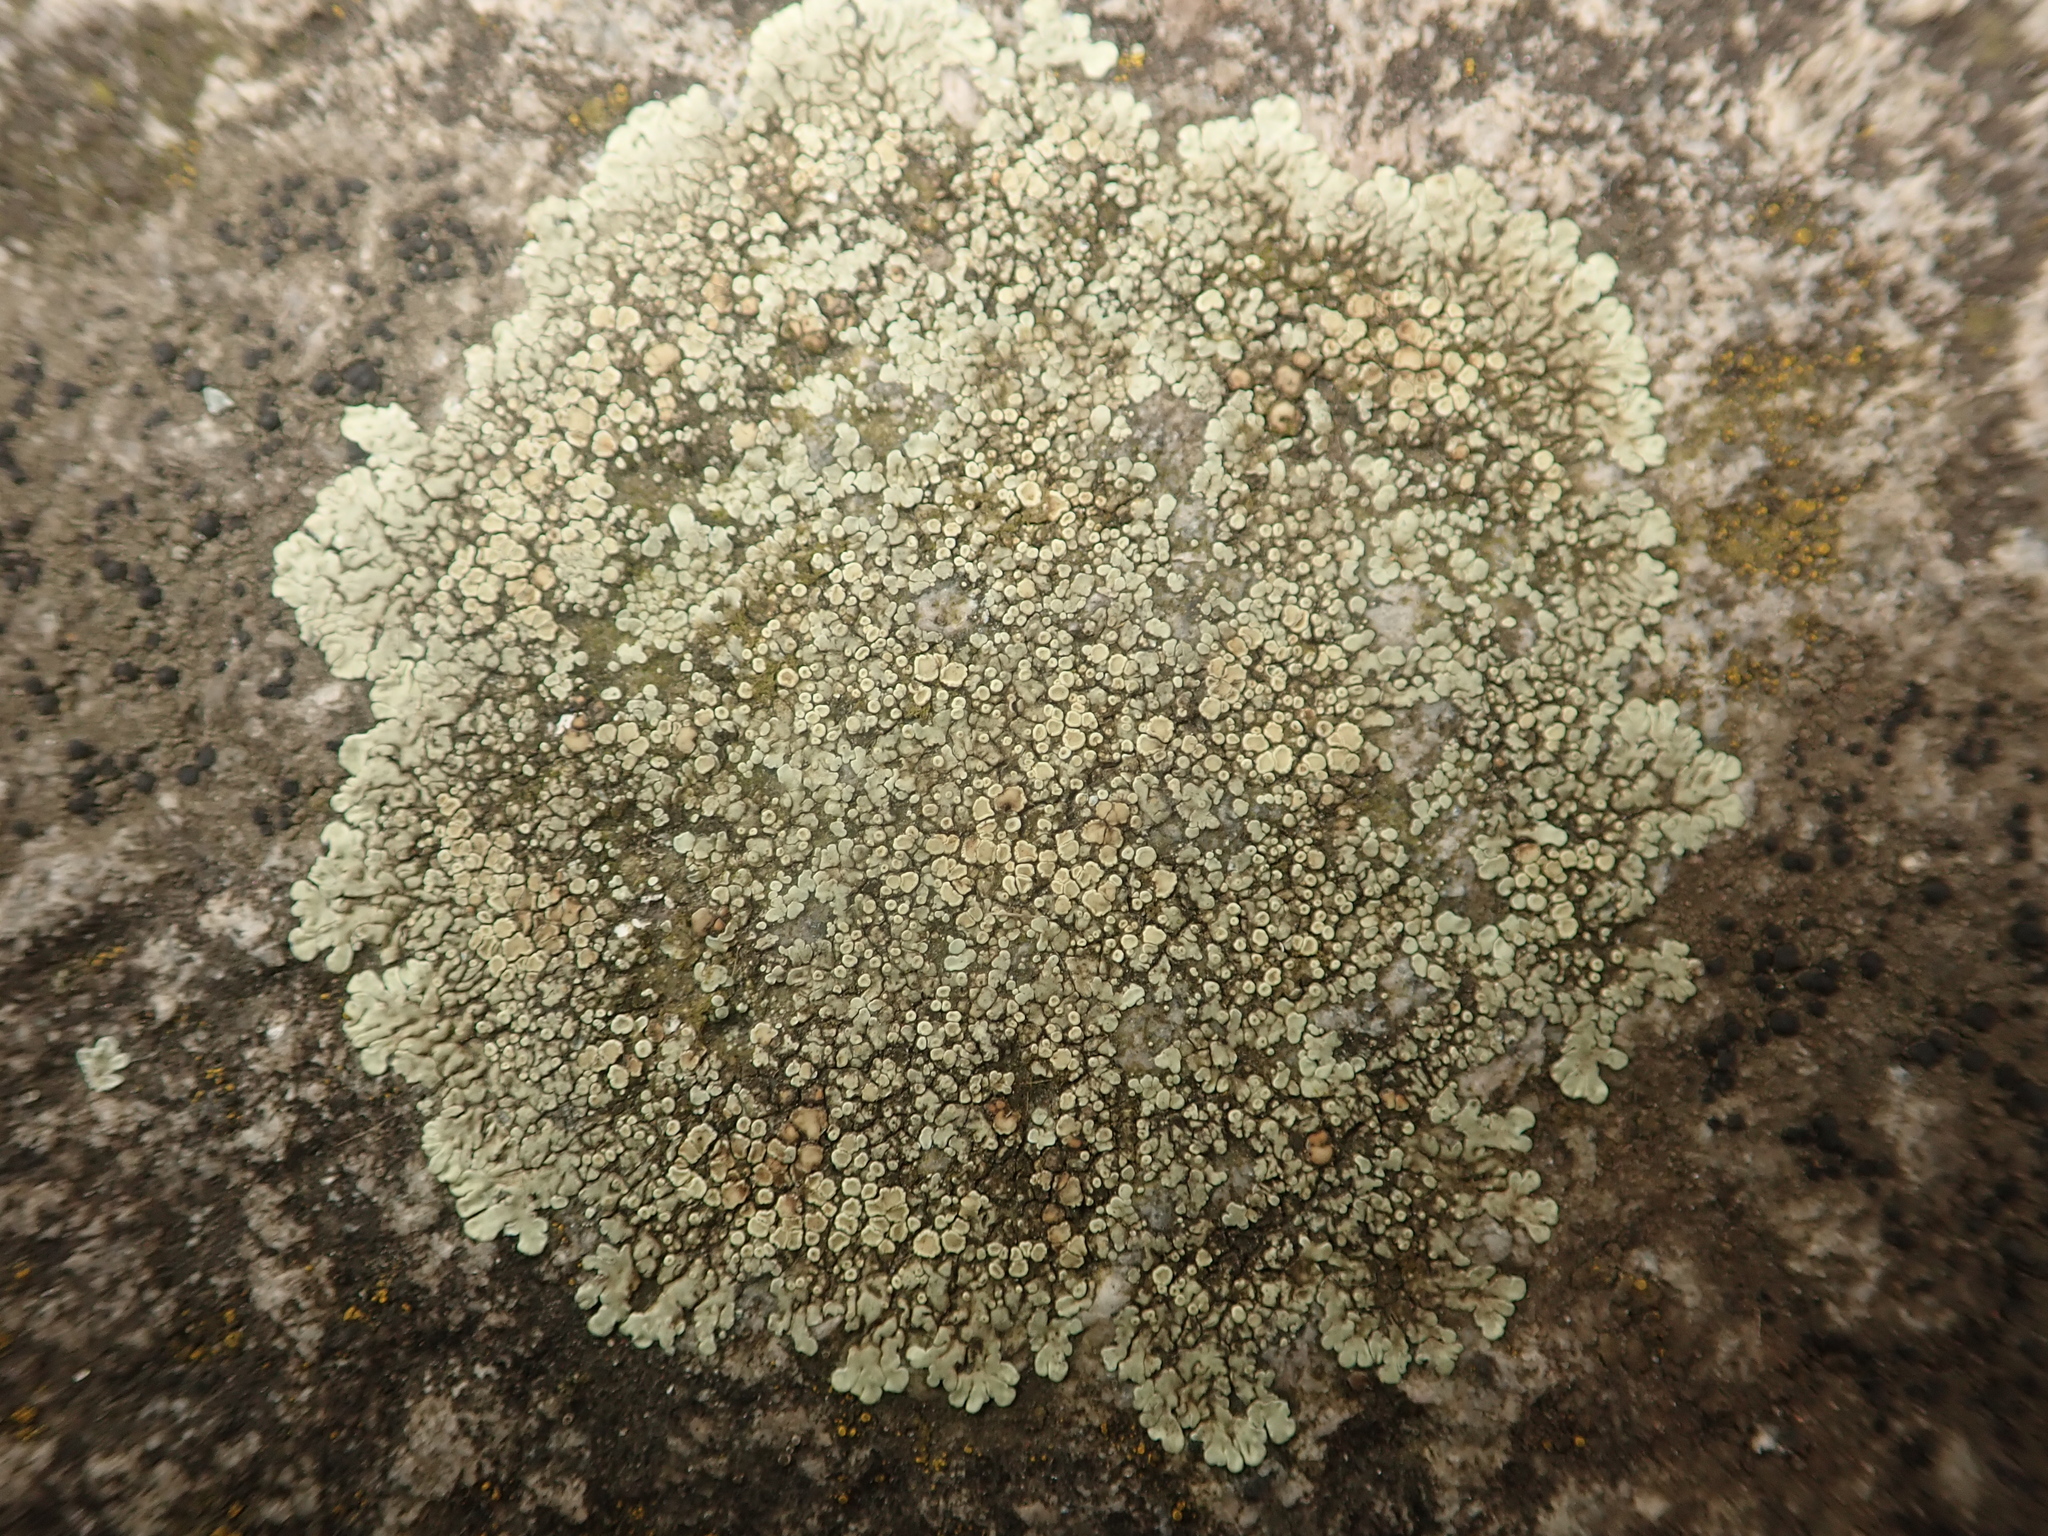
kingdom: Fungi
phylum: Ascomycota
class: Lecanoromycetes
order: Lecanorales
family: Lecanoraceae
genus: Protoparmeliopsis
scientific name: Protoparmeliopsis muralis
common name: Stonewall rim lichen
